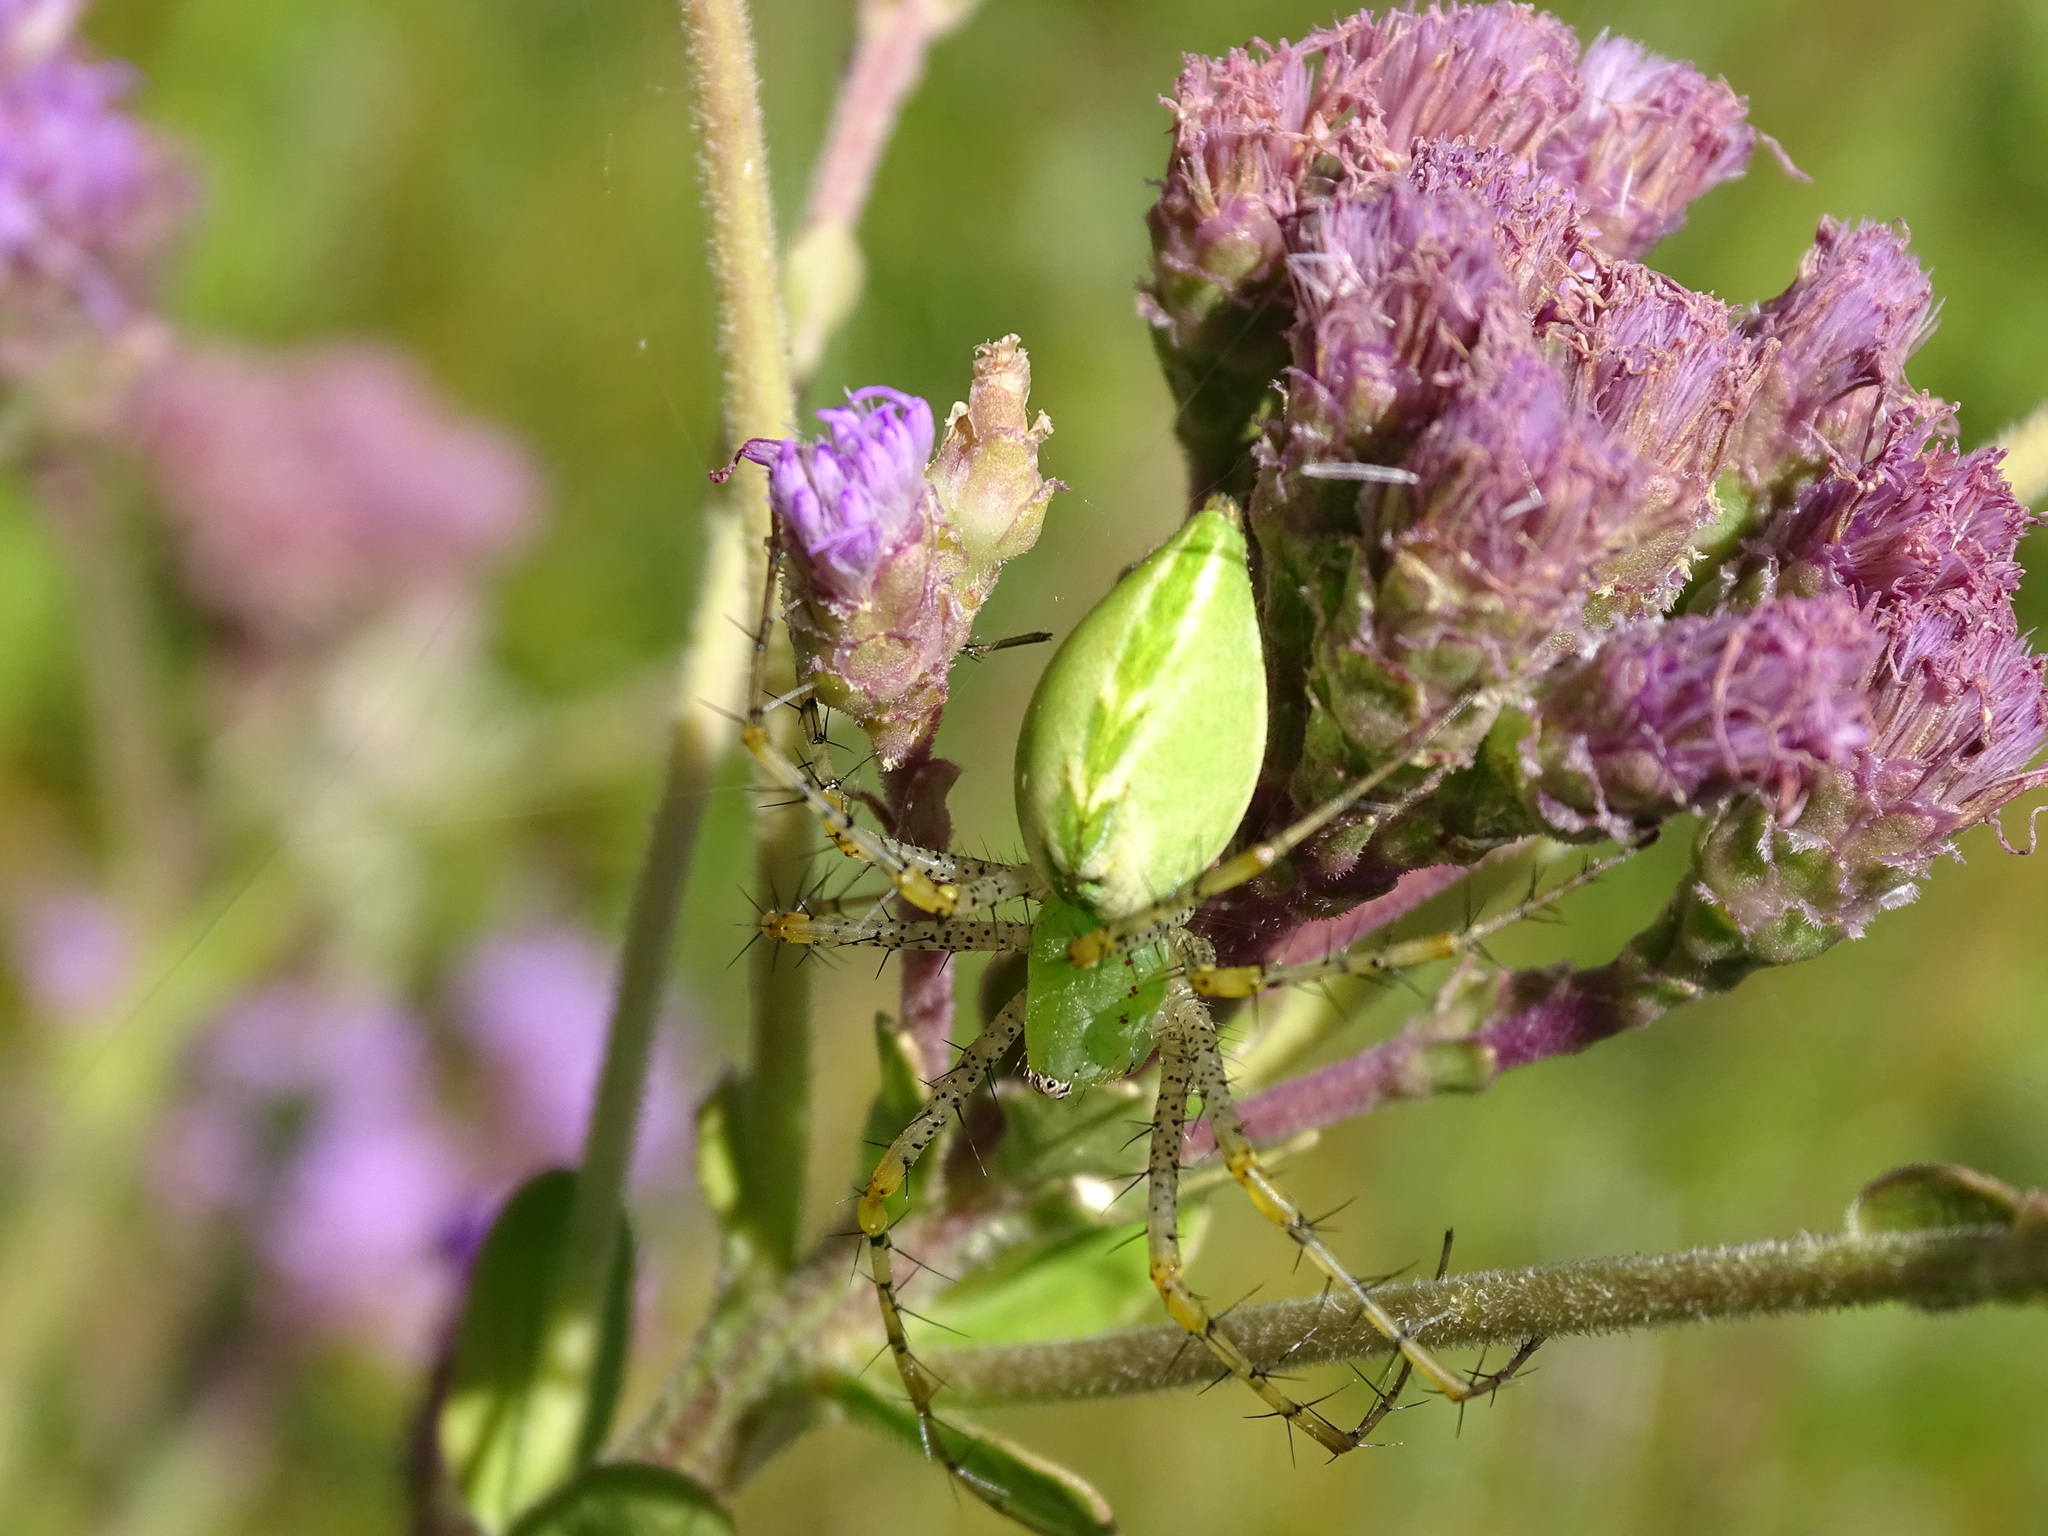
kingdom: Animalia
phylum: Arthropoda
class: Arachnida
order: Araneae
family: Oxyopidae
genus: Peucetia
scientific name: Peucetia viridans
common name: Lynx spiders
